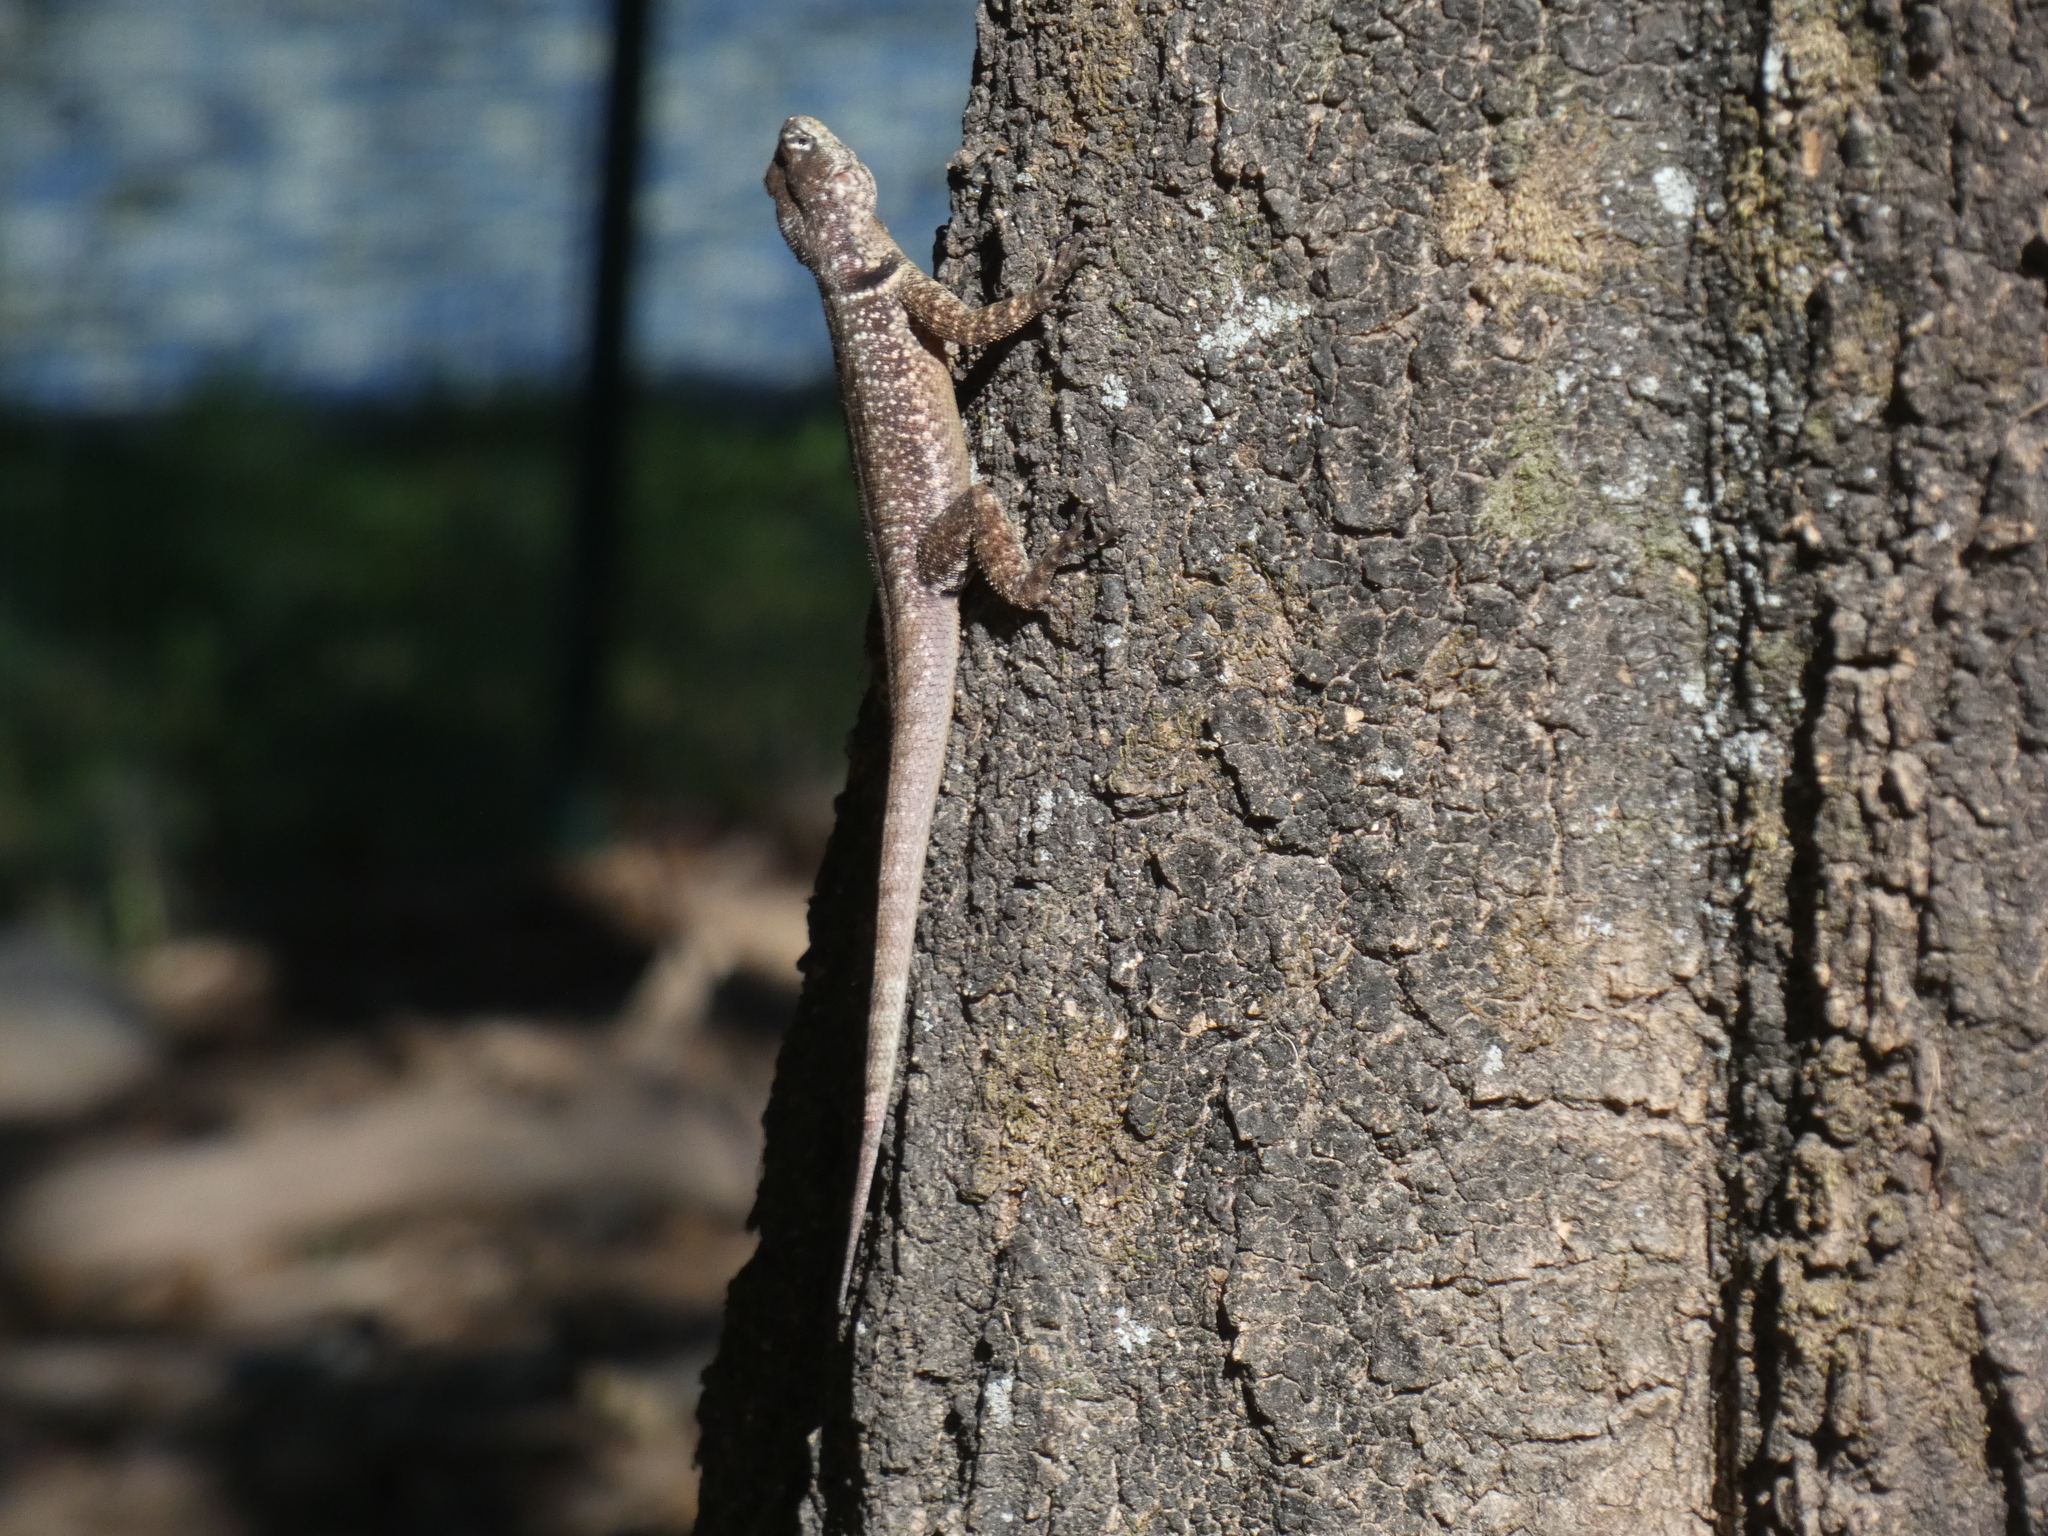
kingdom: Animalia
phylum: Chordata
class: Squamata
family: Tropiduridae
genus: Tropidurus
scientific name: Tropidurus torquatus
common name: Amazon lava lizard
